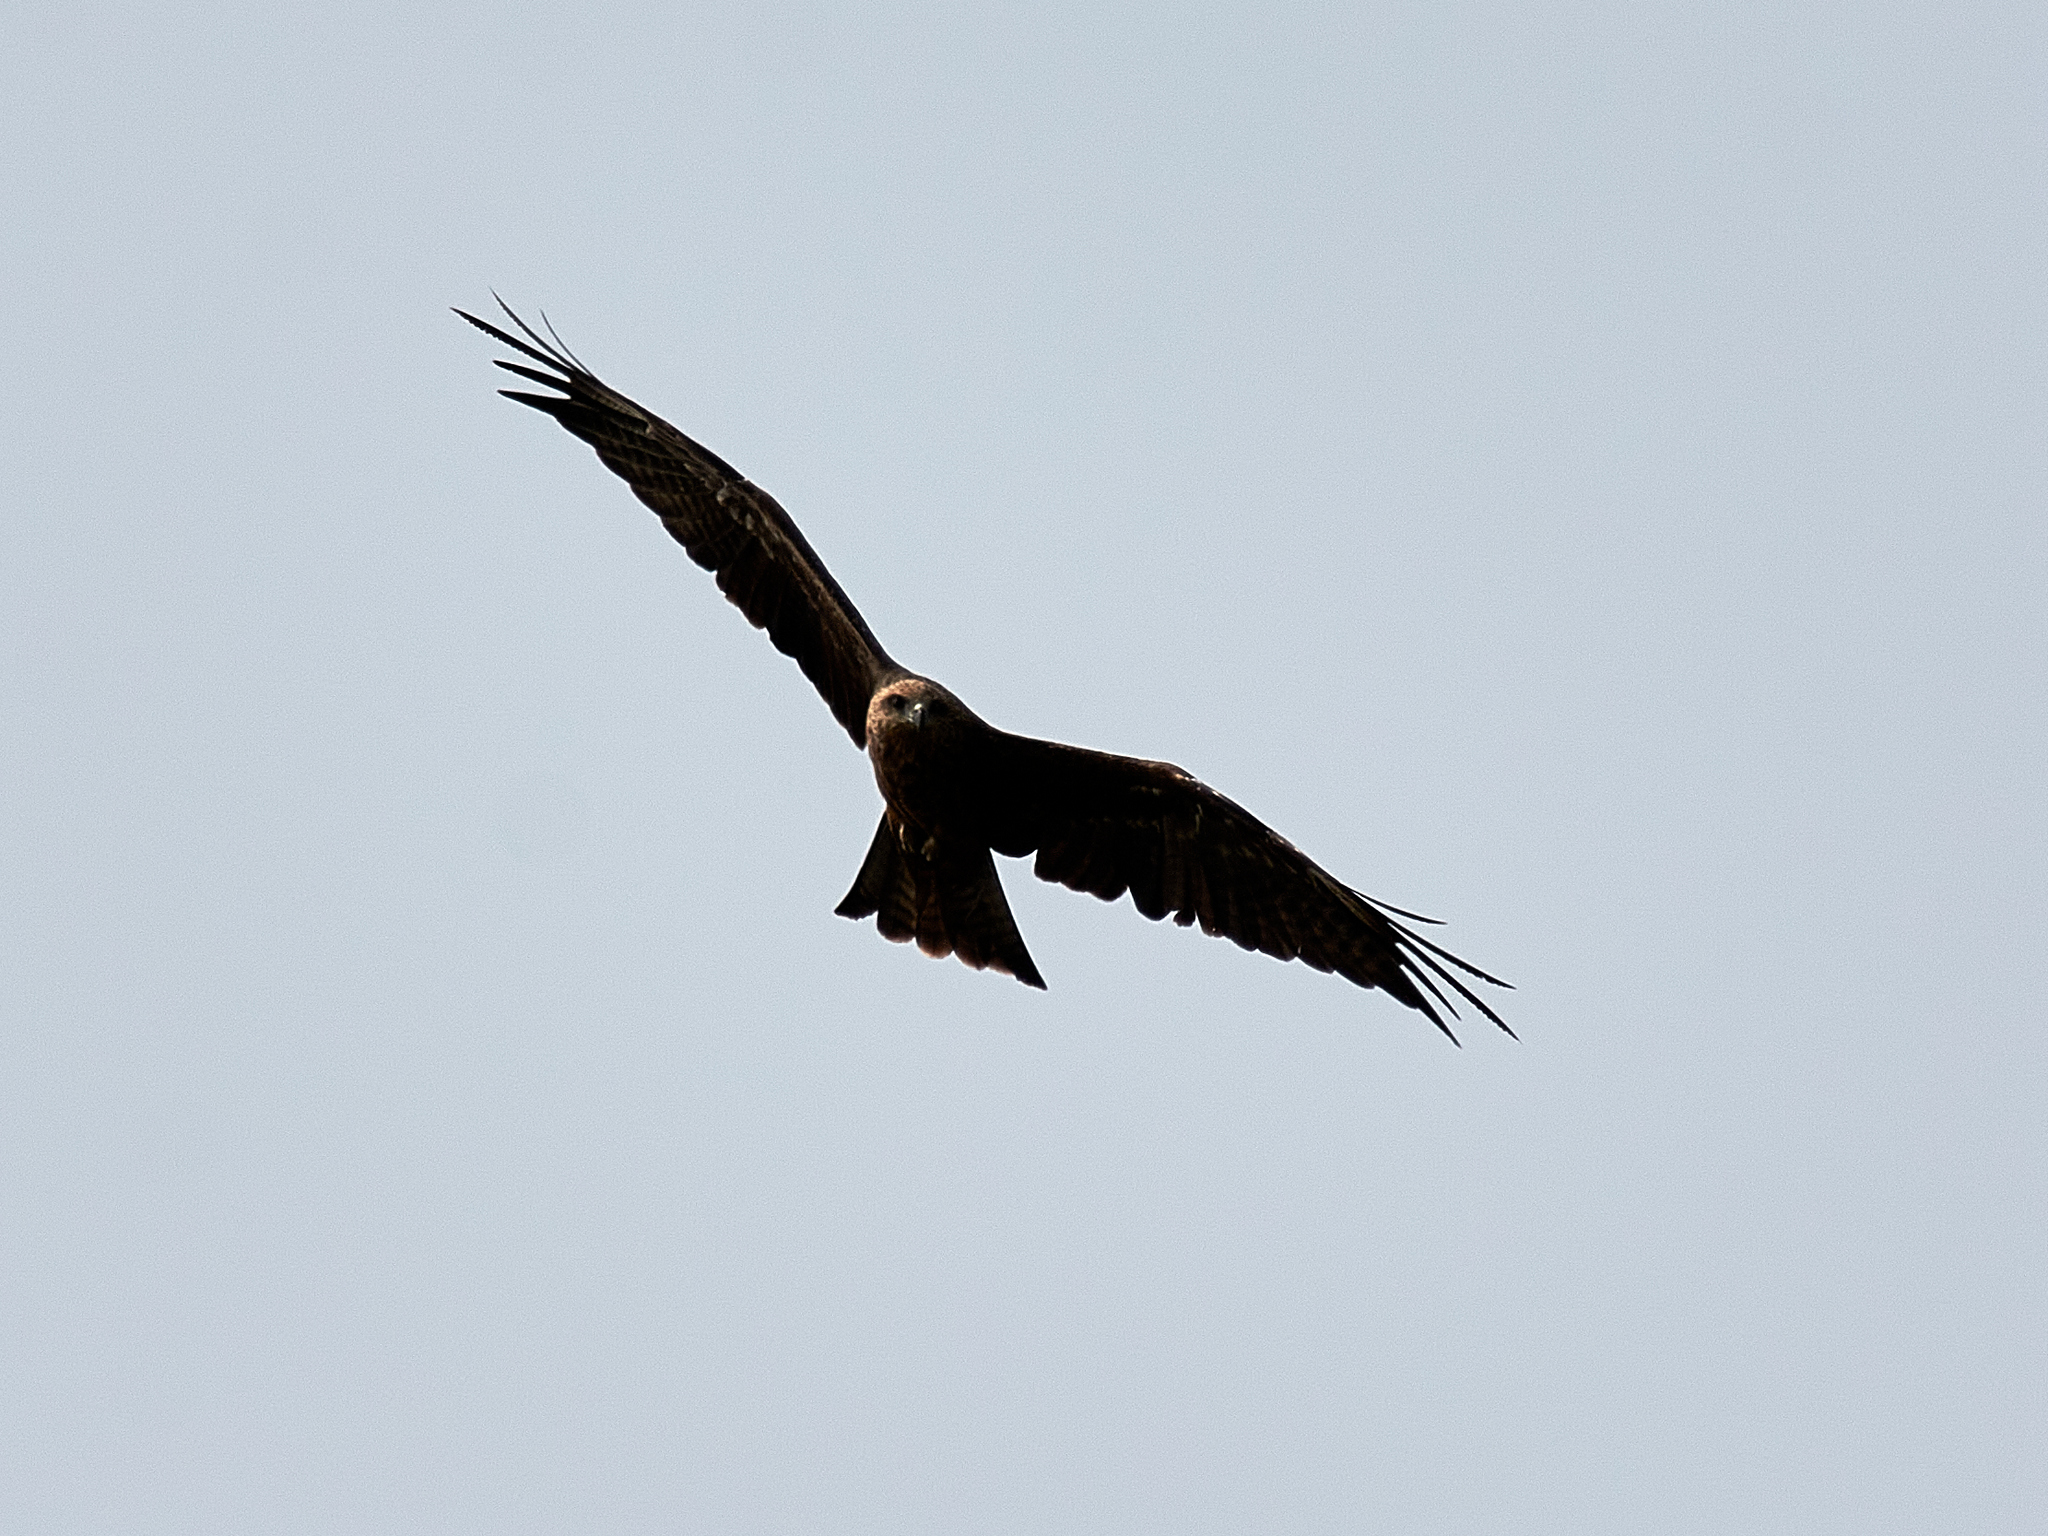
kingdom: Animalia
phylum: Chordata
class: Aves
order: Accipitriformes
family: Accipitridae
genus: Milvus
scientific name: Milvus migrans
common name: Black kite
